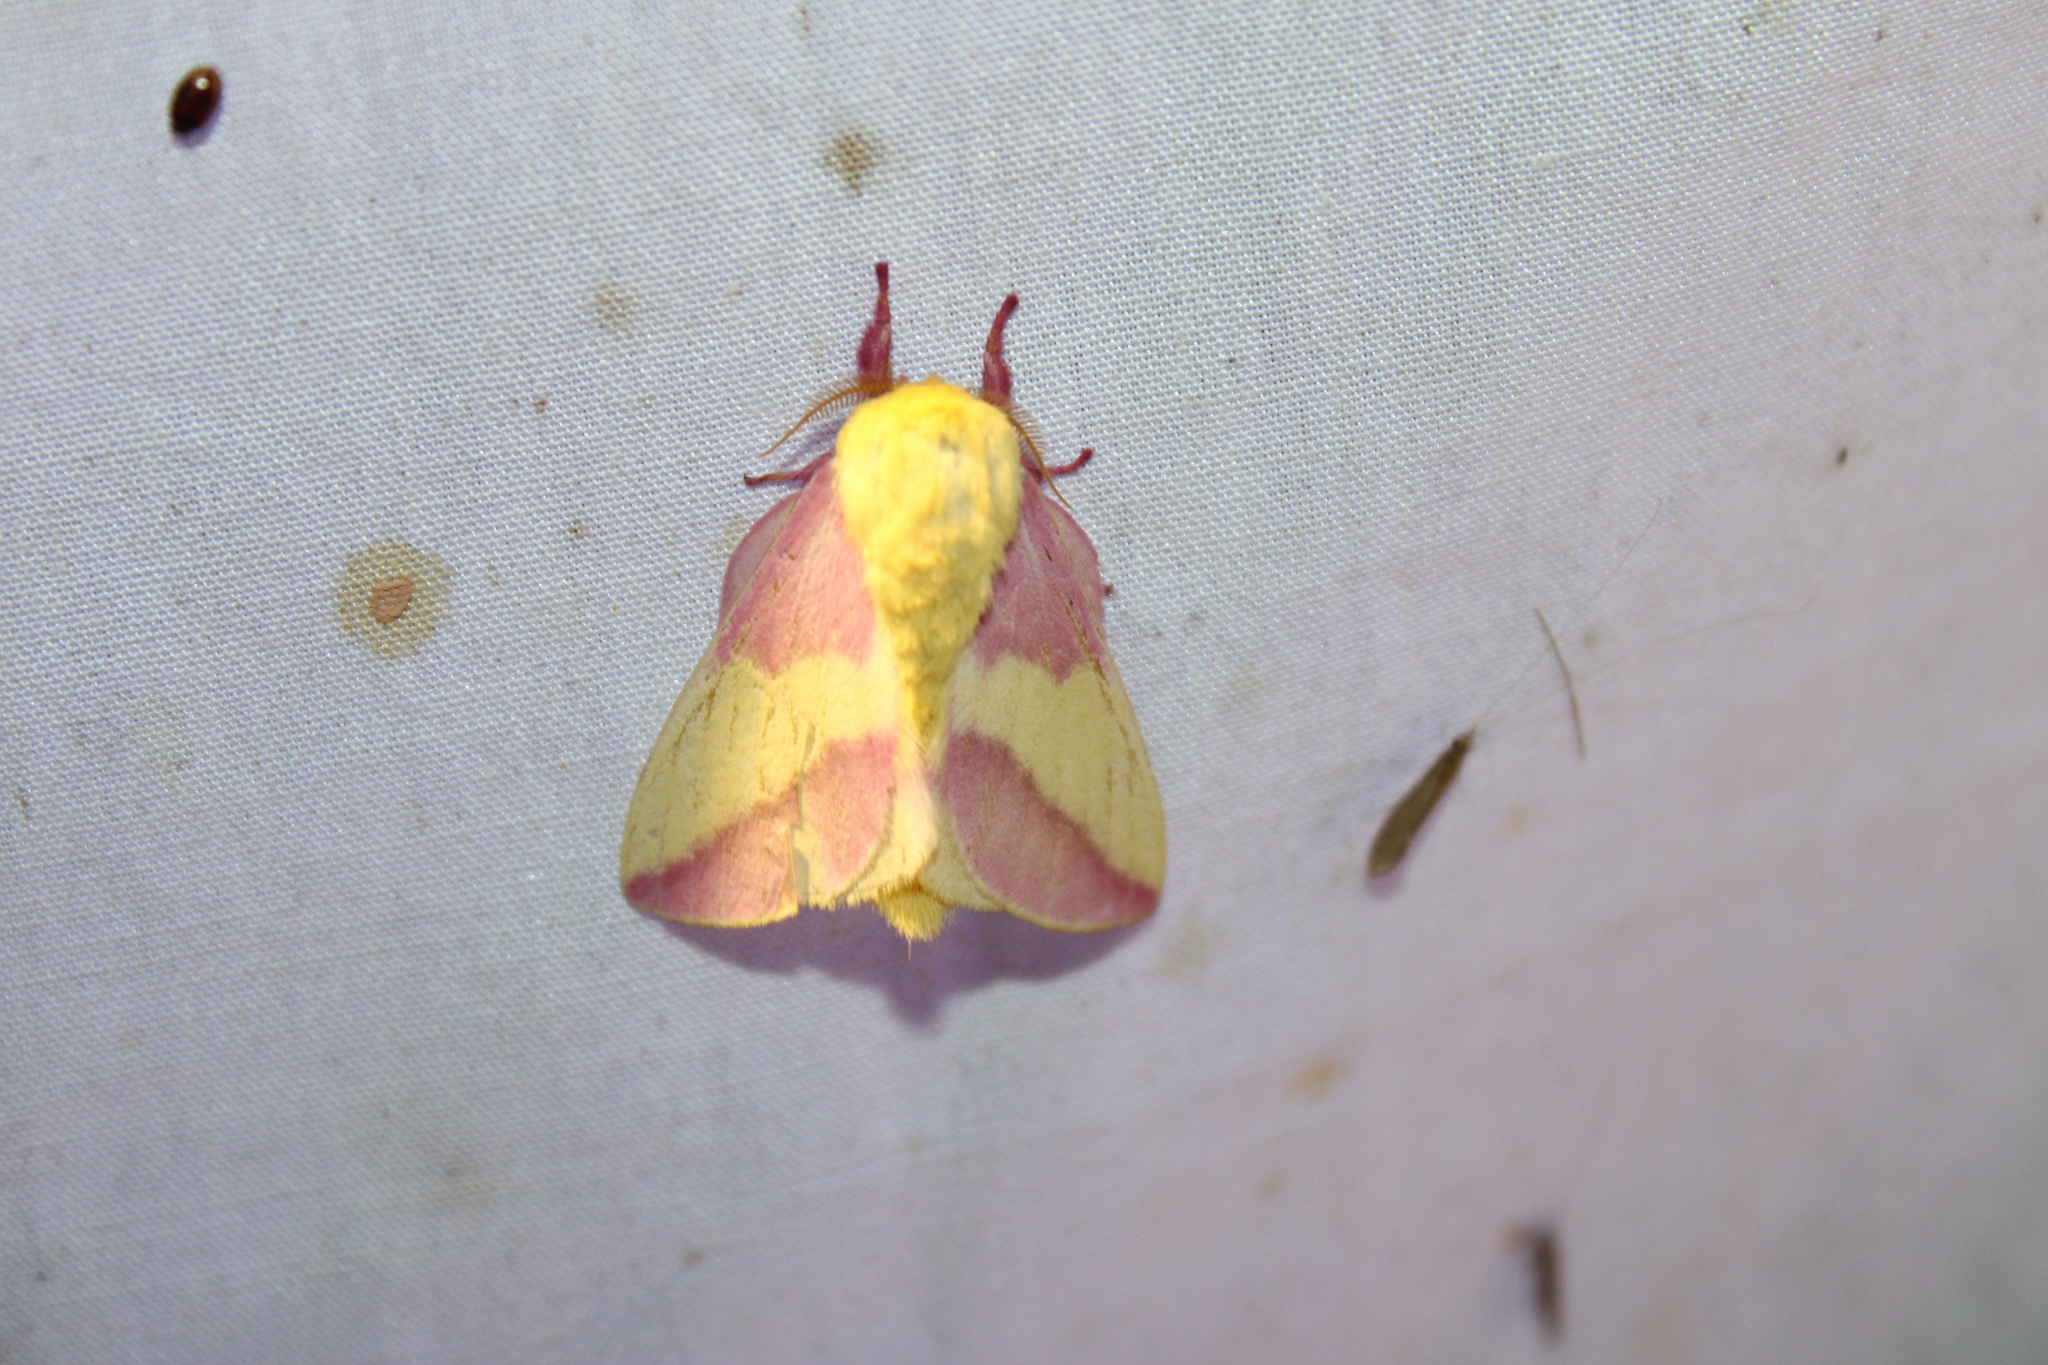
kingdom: Animalia
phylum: Arthropoda
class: Insecta
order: Lepidoptera
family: Saturniidae
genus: Dryocampa
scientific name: Dryocampa rubicunda
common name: Rosy maple moth
